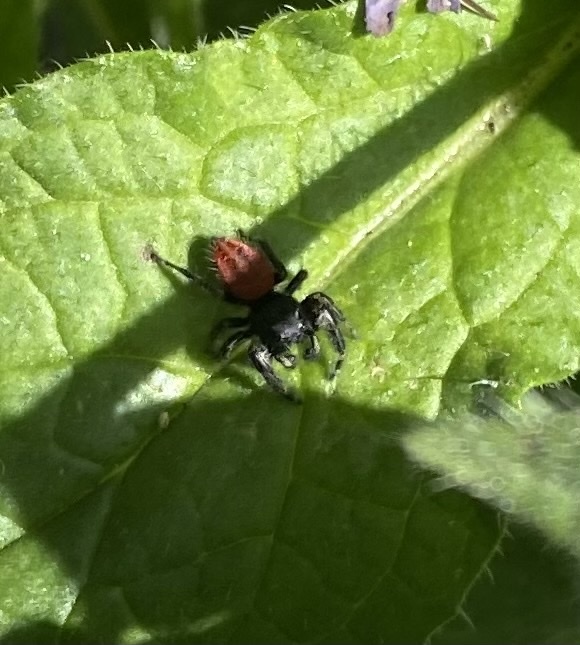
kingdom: Animalia
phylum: Arthropoda
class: Arachnida
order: Araneae
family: Salticidae
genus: Phidippus
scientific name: Phidippus johnsoni
